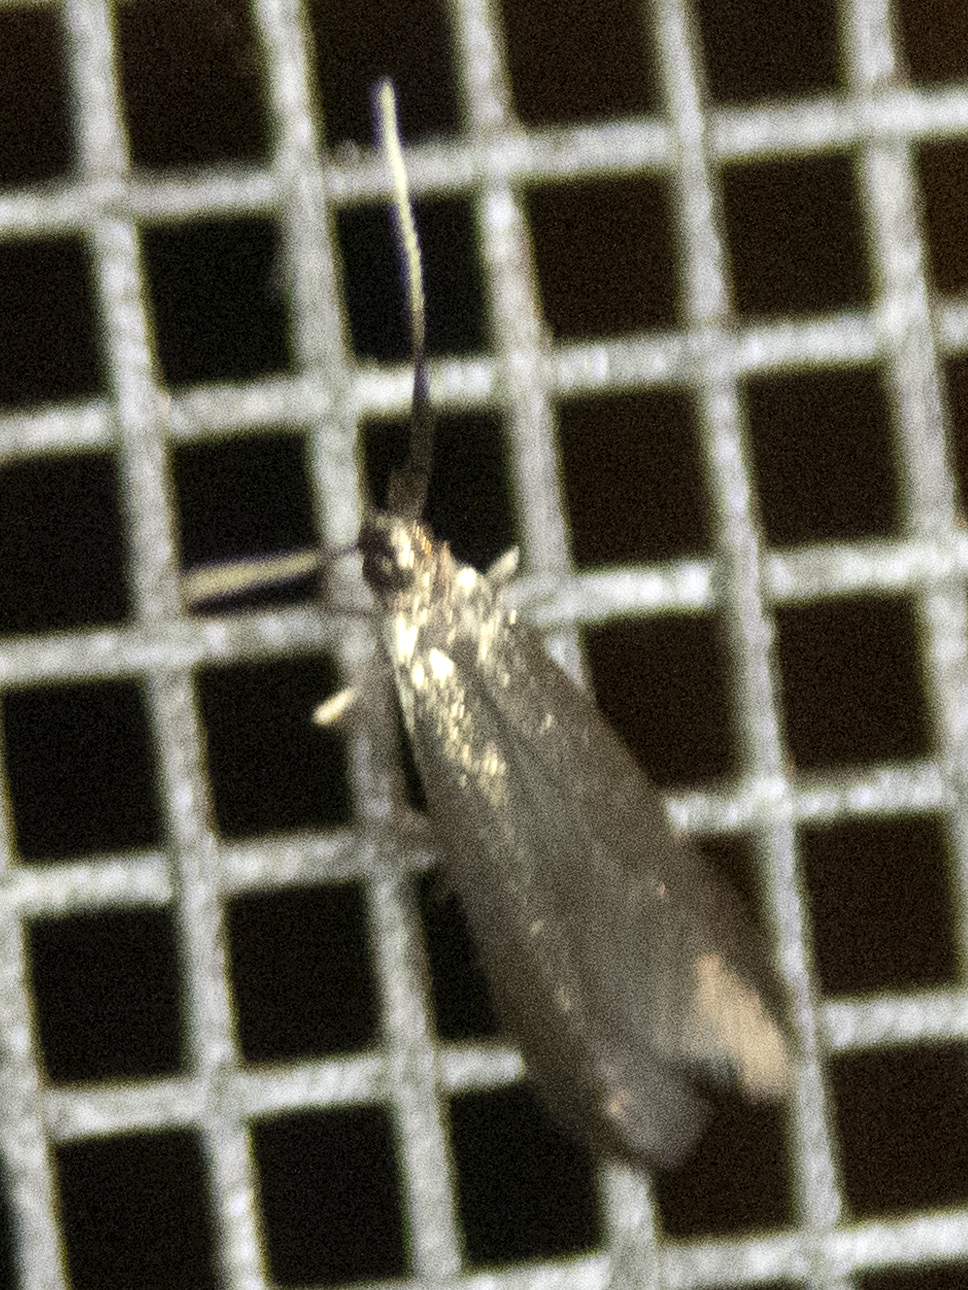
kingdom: Animalia
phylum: Arthropoda
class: Insecta
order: Lepidoptera
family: Coleophoridae
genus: Coleophora
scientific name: Coleophora mayrella
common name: Meadow case-bearer
